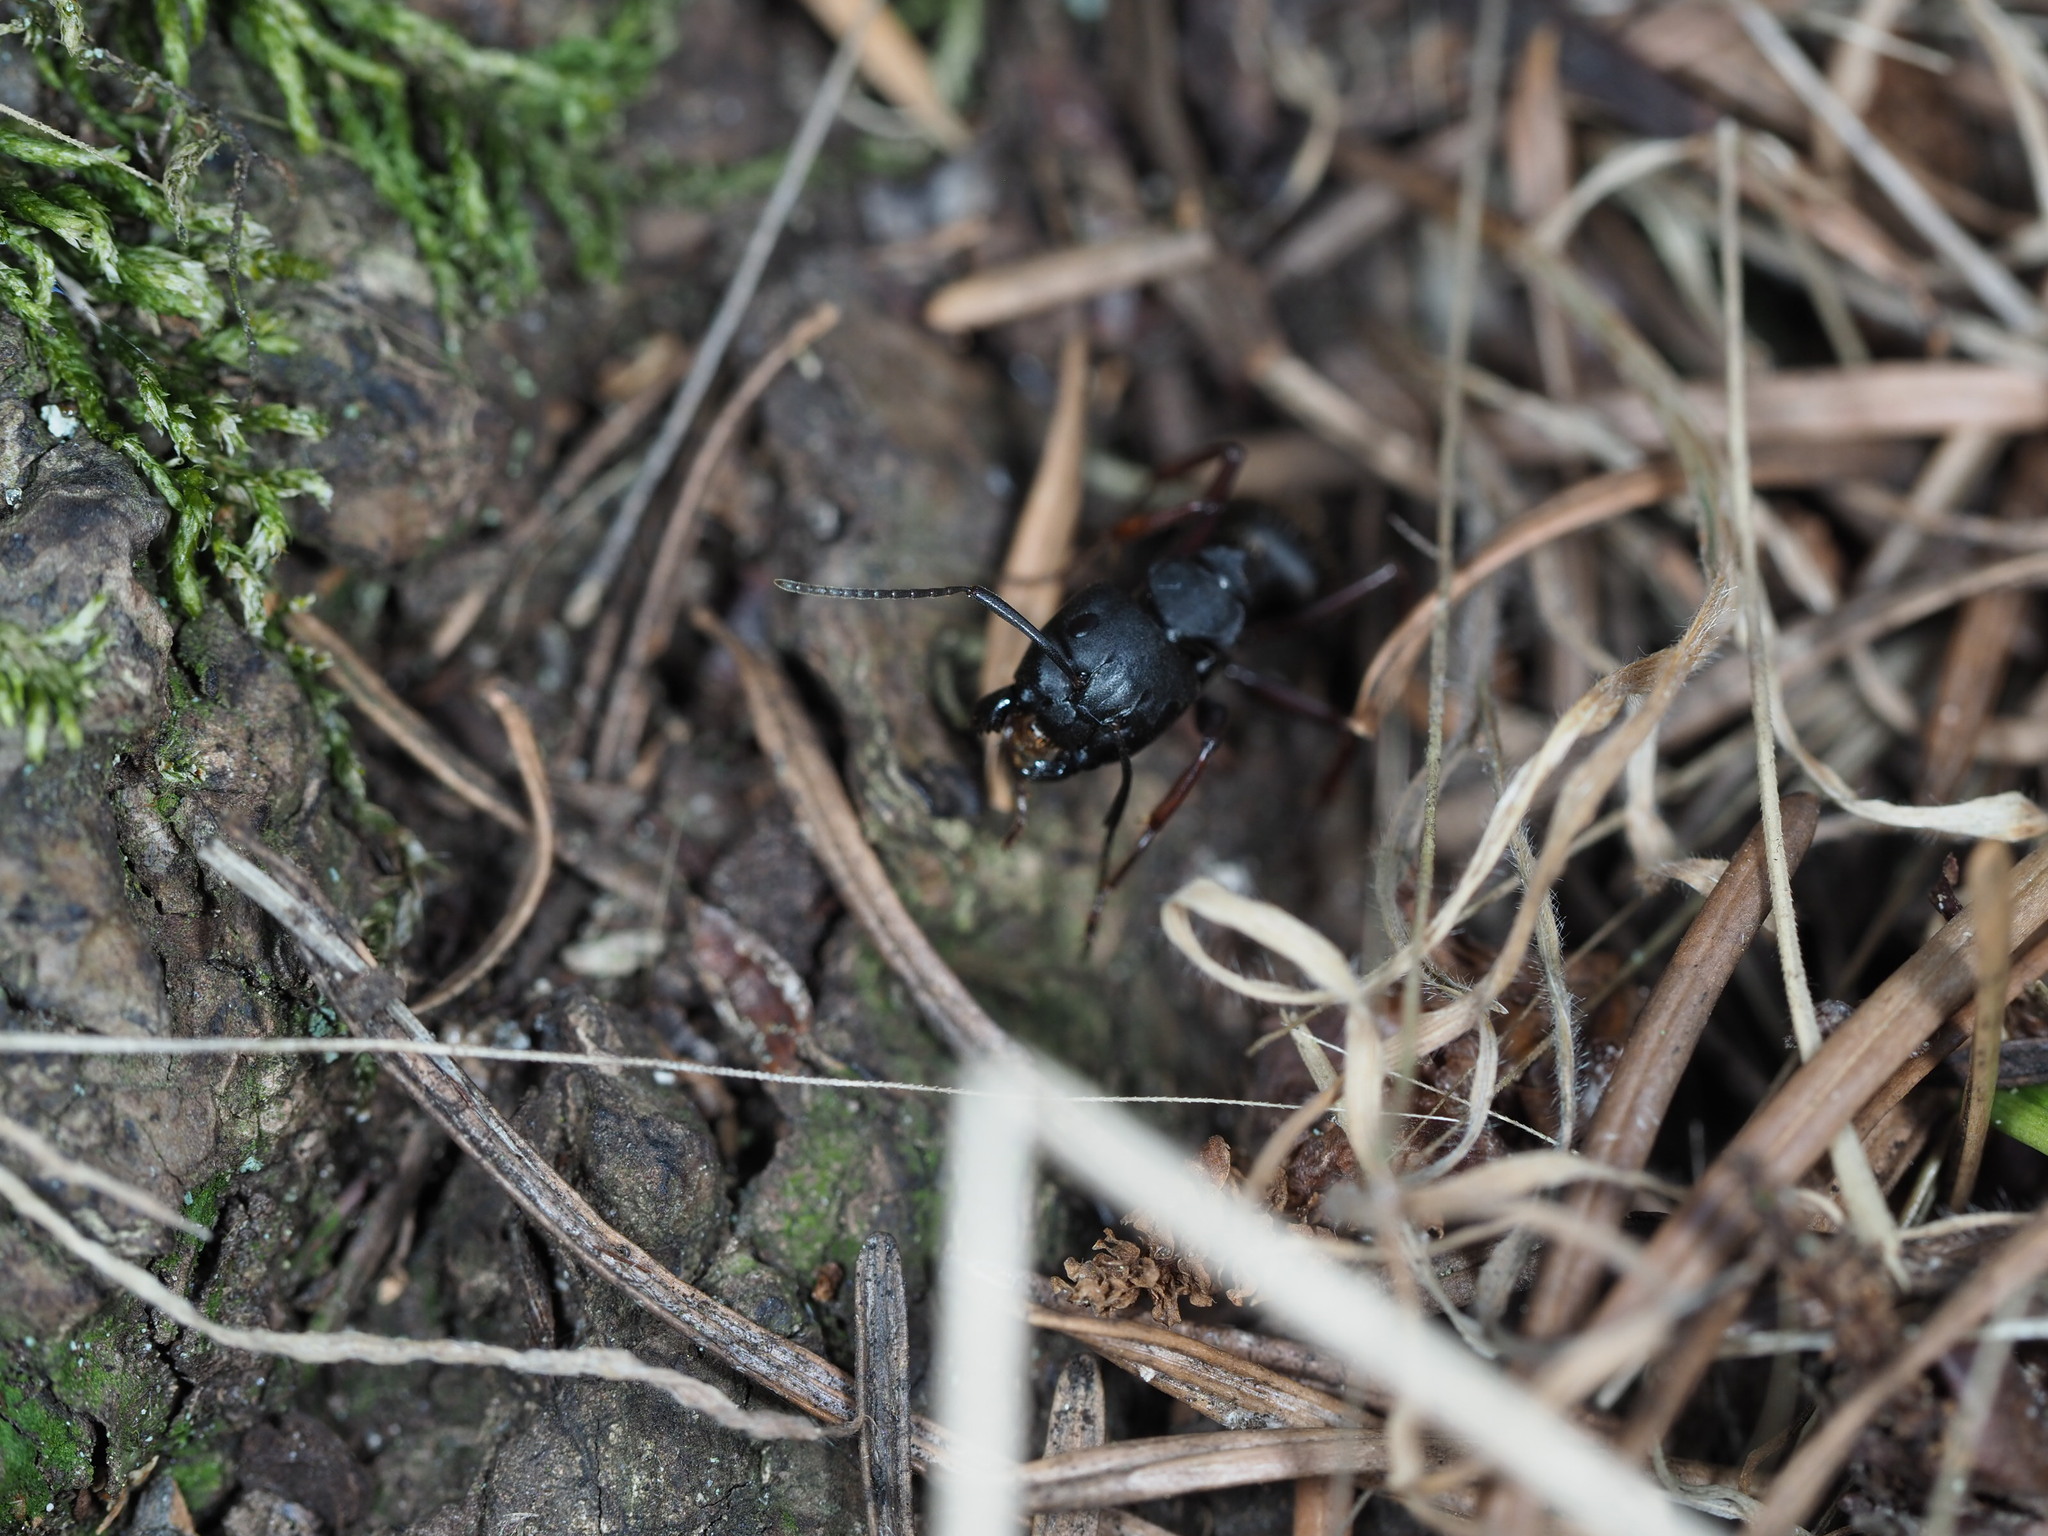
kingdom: Animalia
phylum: Arthropoda
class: Insecta
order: Hymenoptera
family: Formicidae
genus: Camponotus
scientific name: Camponotus modoc
